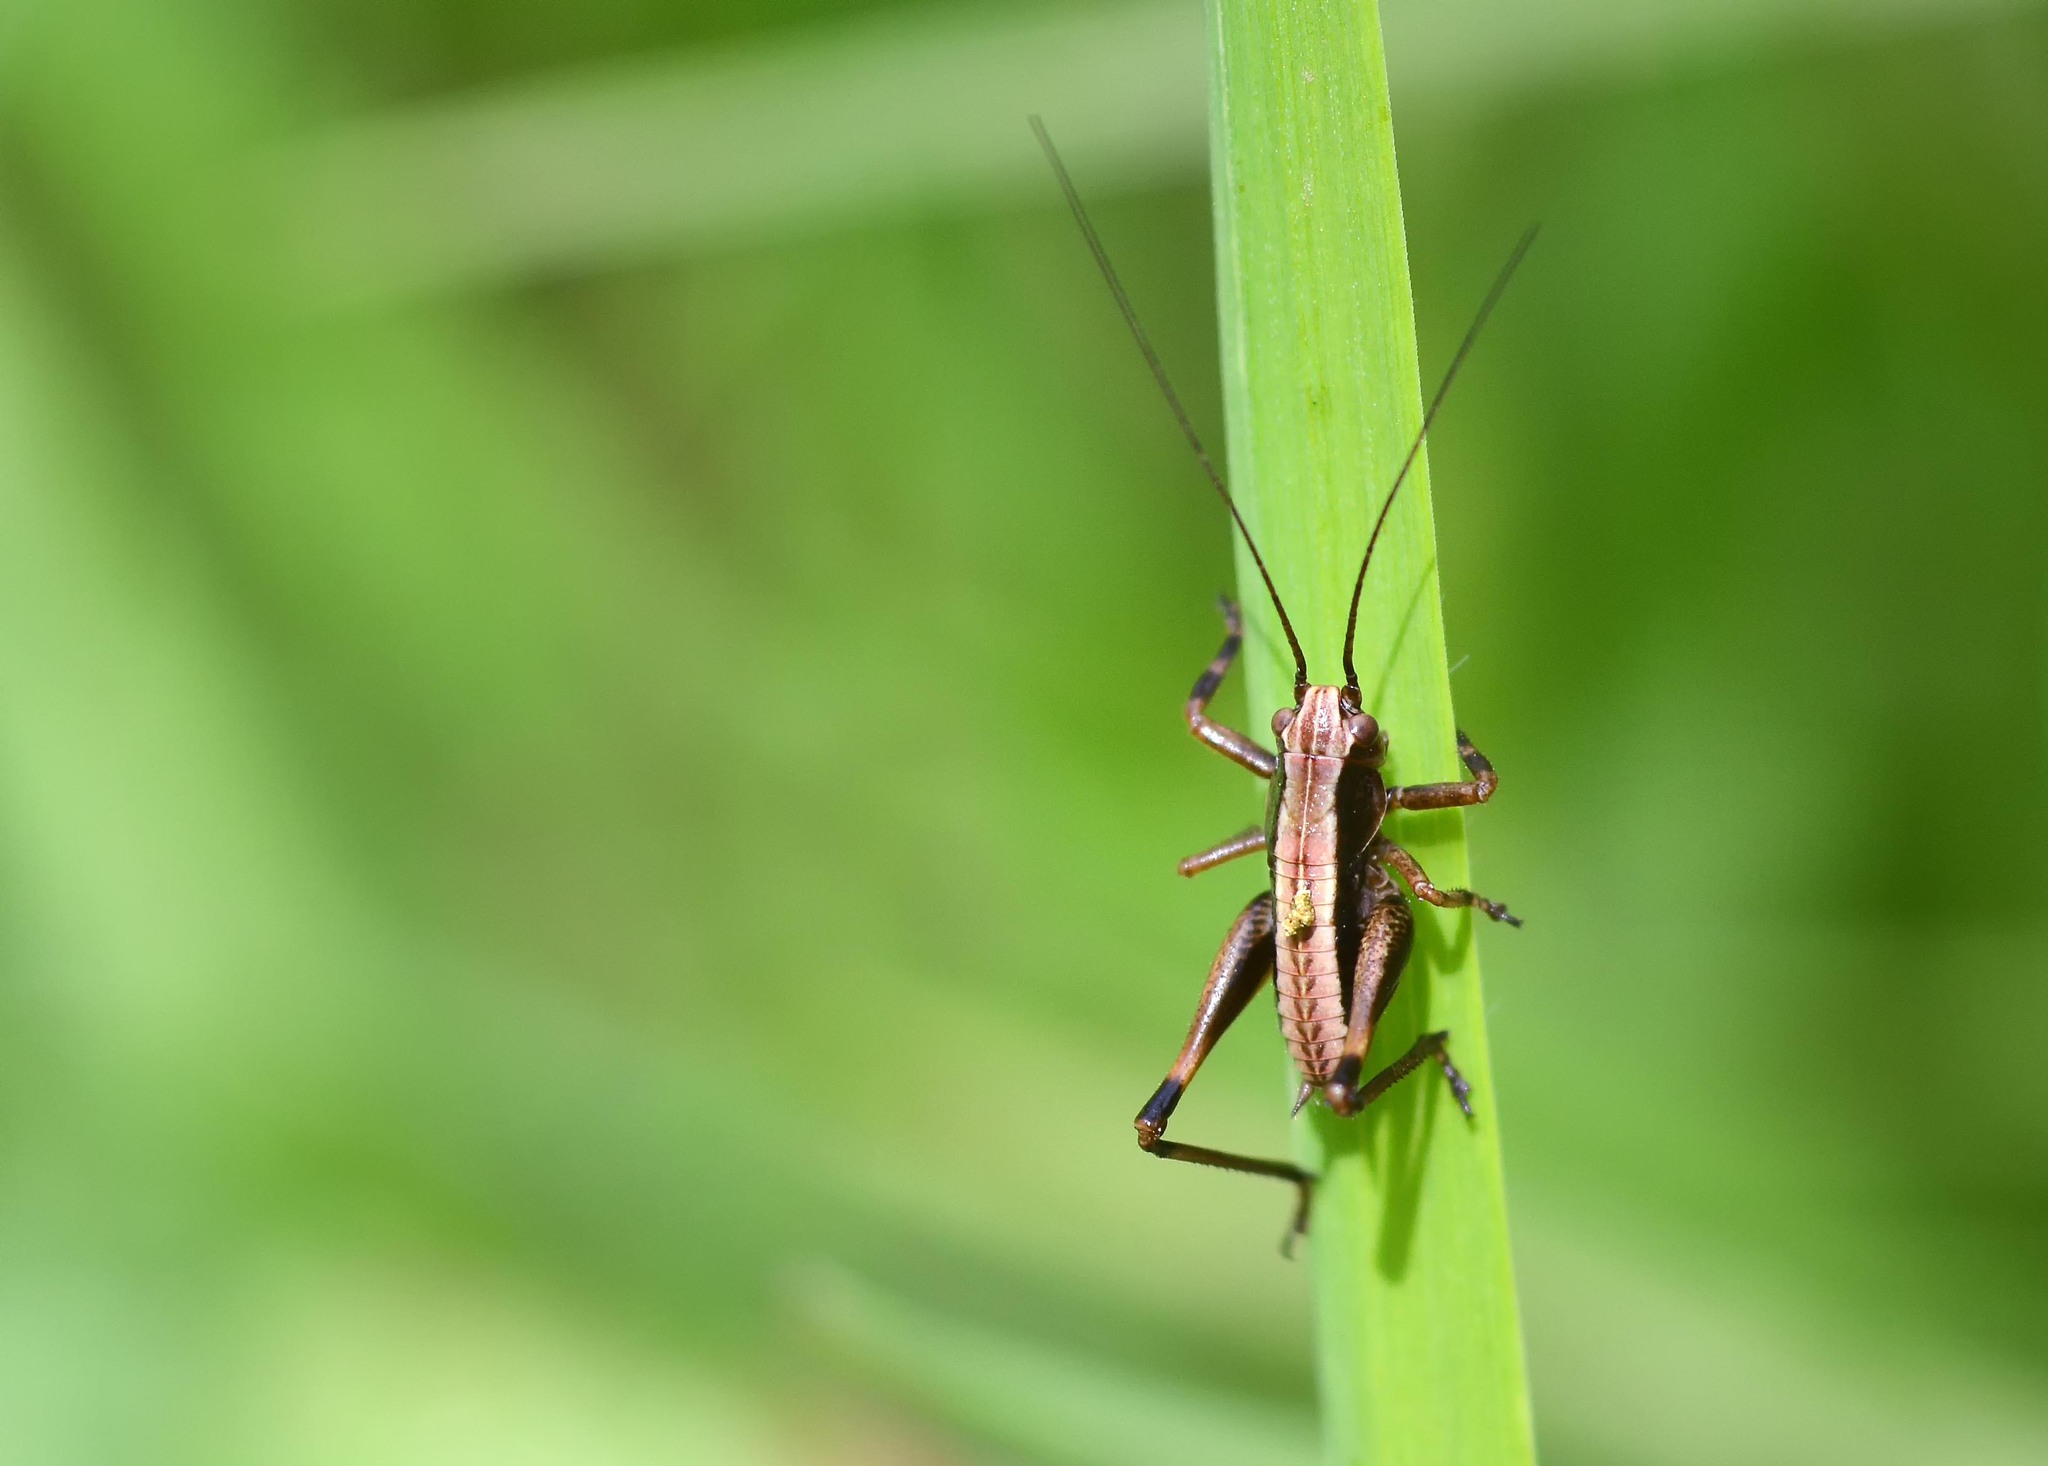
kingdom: Animalia
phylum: Arthropoda
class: Insecta
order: Orthoptera
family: Tettigoniidae
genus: Pholidoptera
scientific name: Pholidoptera griseoaptera
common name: Dark bush-cricket
